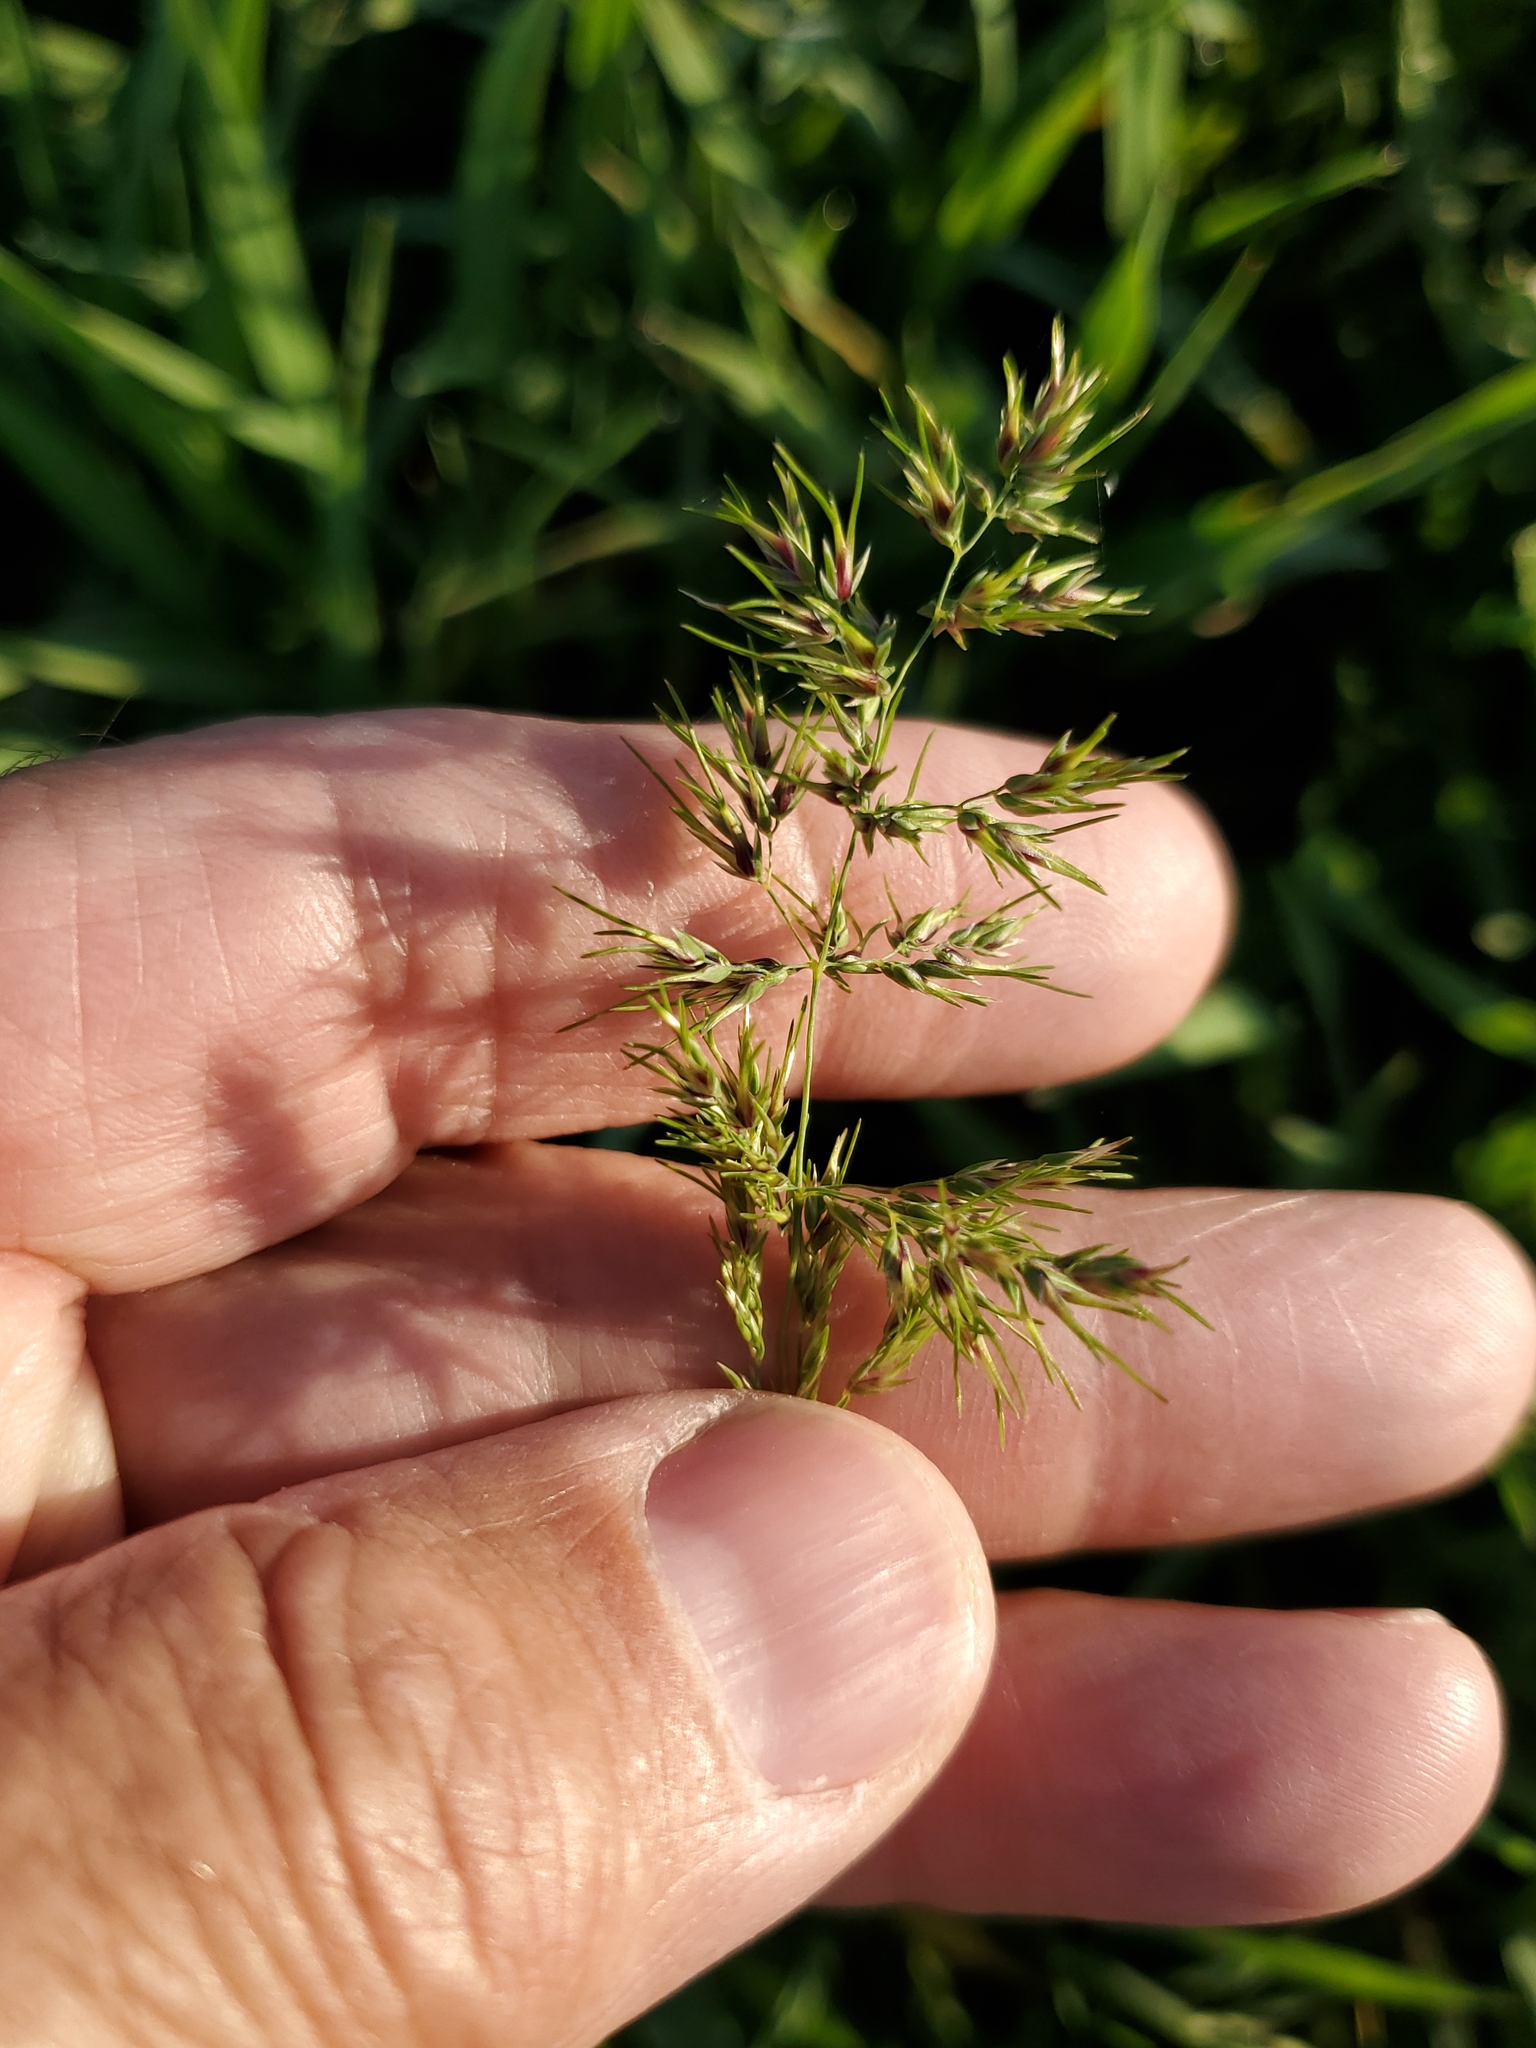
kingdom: Plantae
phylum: Tracheophyta
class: Liliopsida
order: Poales
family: Poaceae
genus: Poa
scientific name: Poa bulbosa
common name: Bulbous bluegrass
